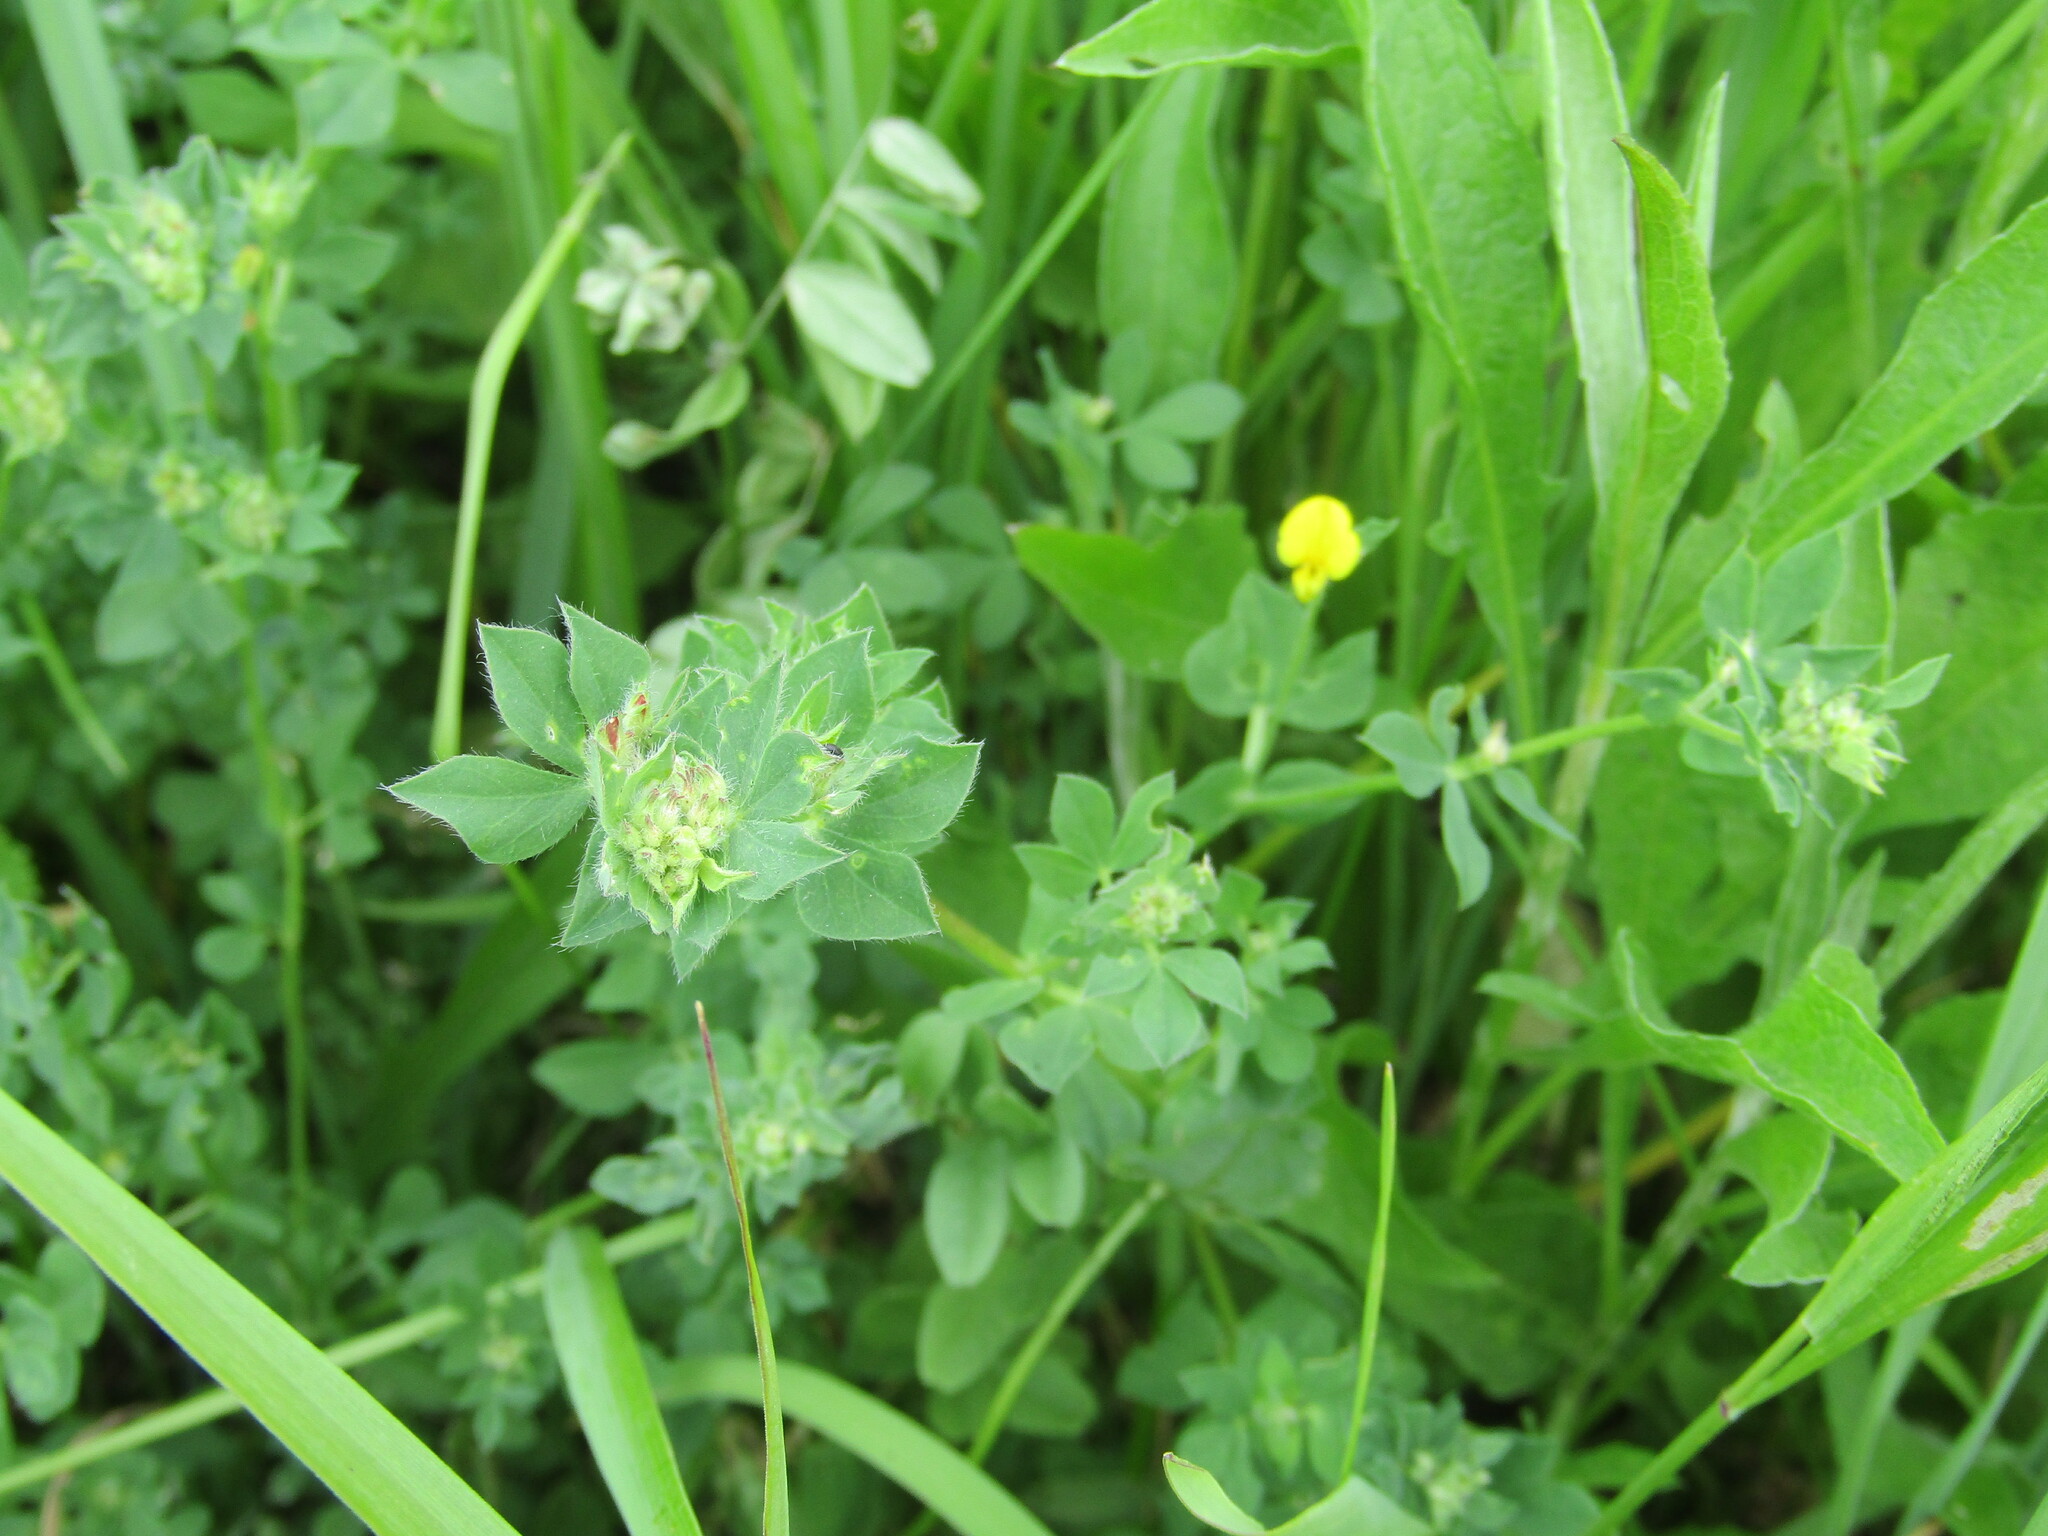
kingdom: Plantae
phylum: Tracheophyta
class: Magnoliopsida
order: Fabales
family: Fabaceae
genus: Lotus
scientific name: Lotus corniculatus
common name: Common bird's-foot-trefoil
